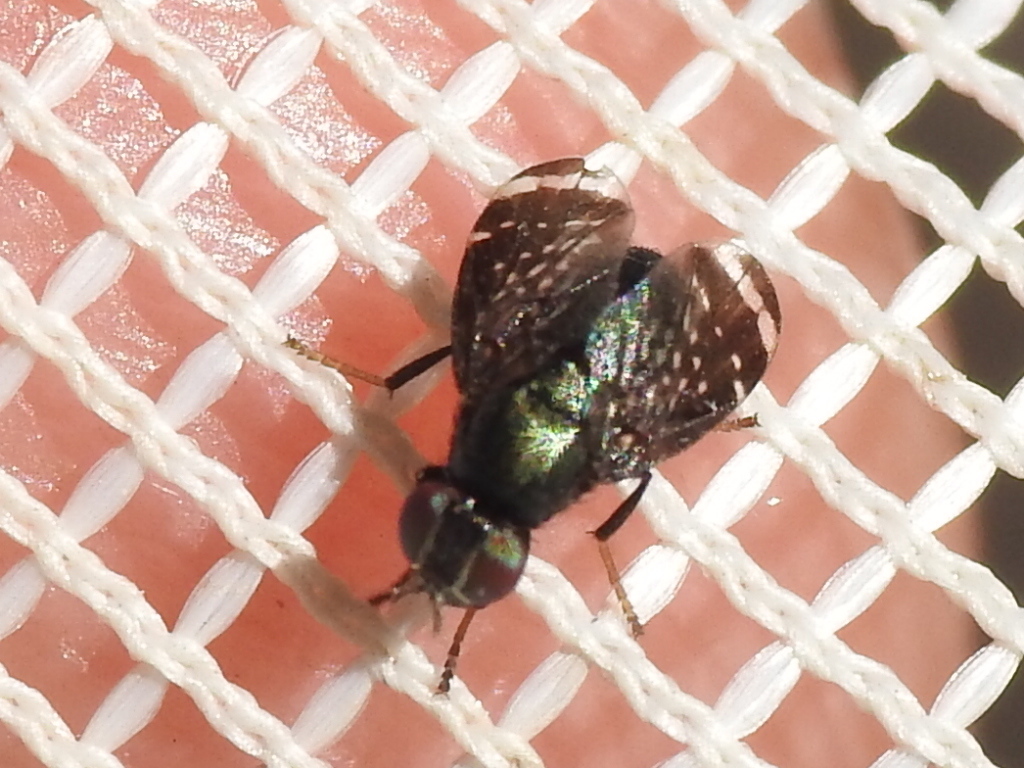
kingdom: Animalia
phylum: Arthropoda
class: Insecta
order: Diptera
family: Platystomatidae
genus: Amphicnephes
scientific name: Amphicnephes pullus
